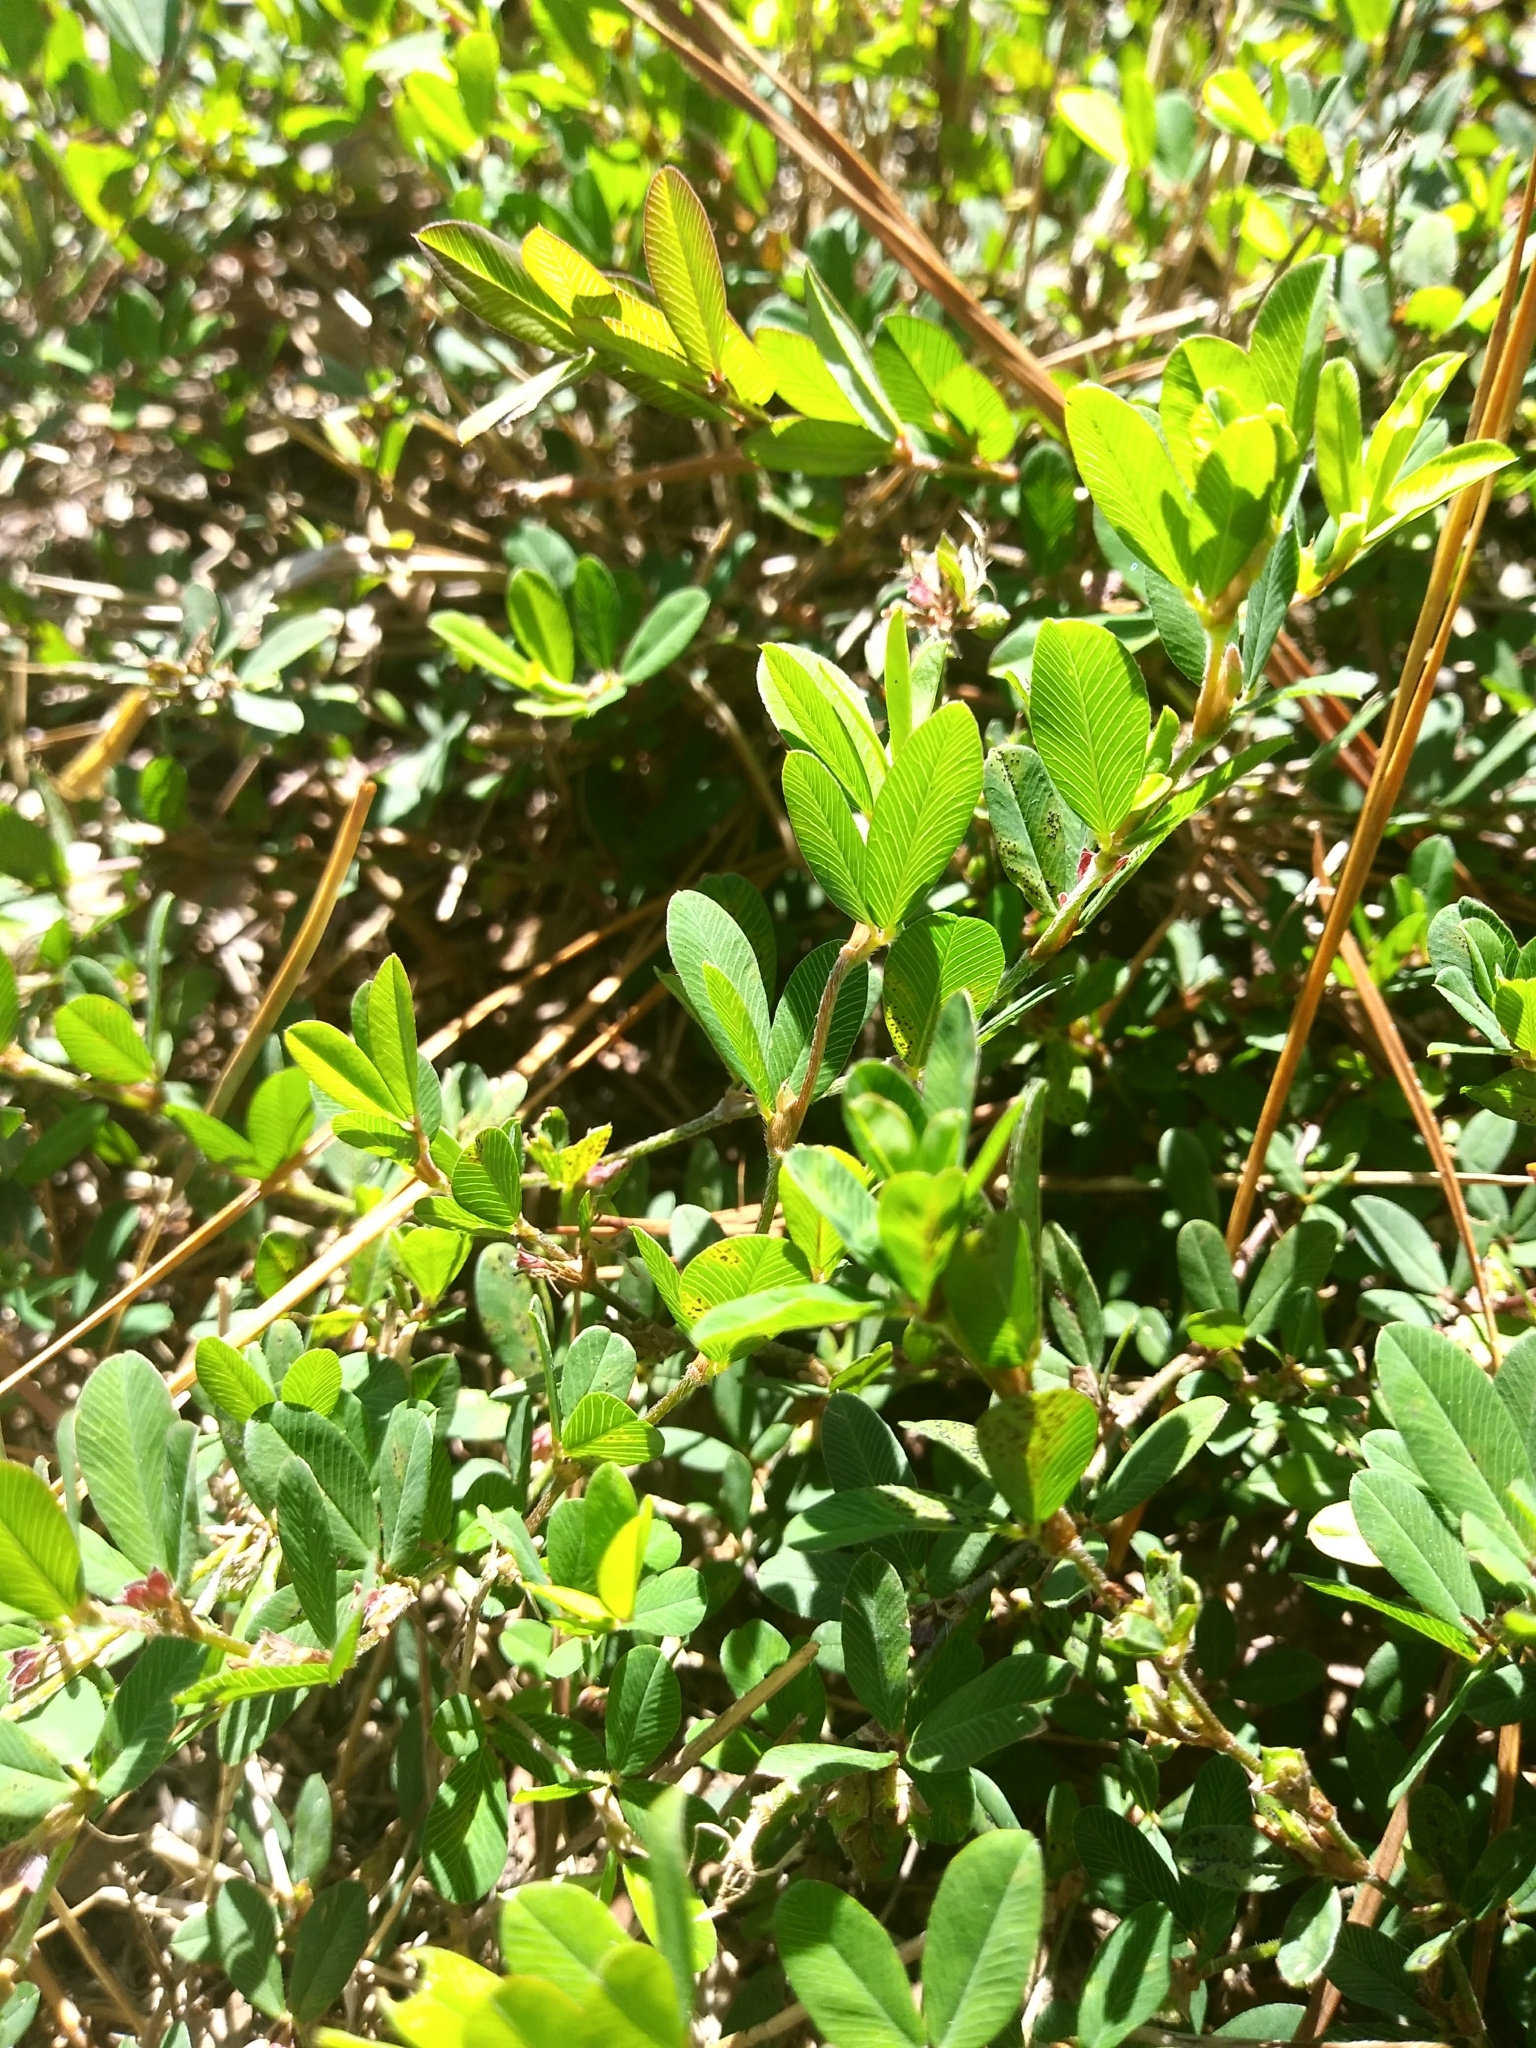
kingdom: Plantae
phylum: Tracheophyta
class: Magnoliopsida
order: Fabales
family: Fabaceae
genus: Kummerowia
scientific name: Kummerowia striata
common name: Japanese clover
